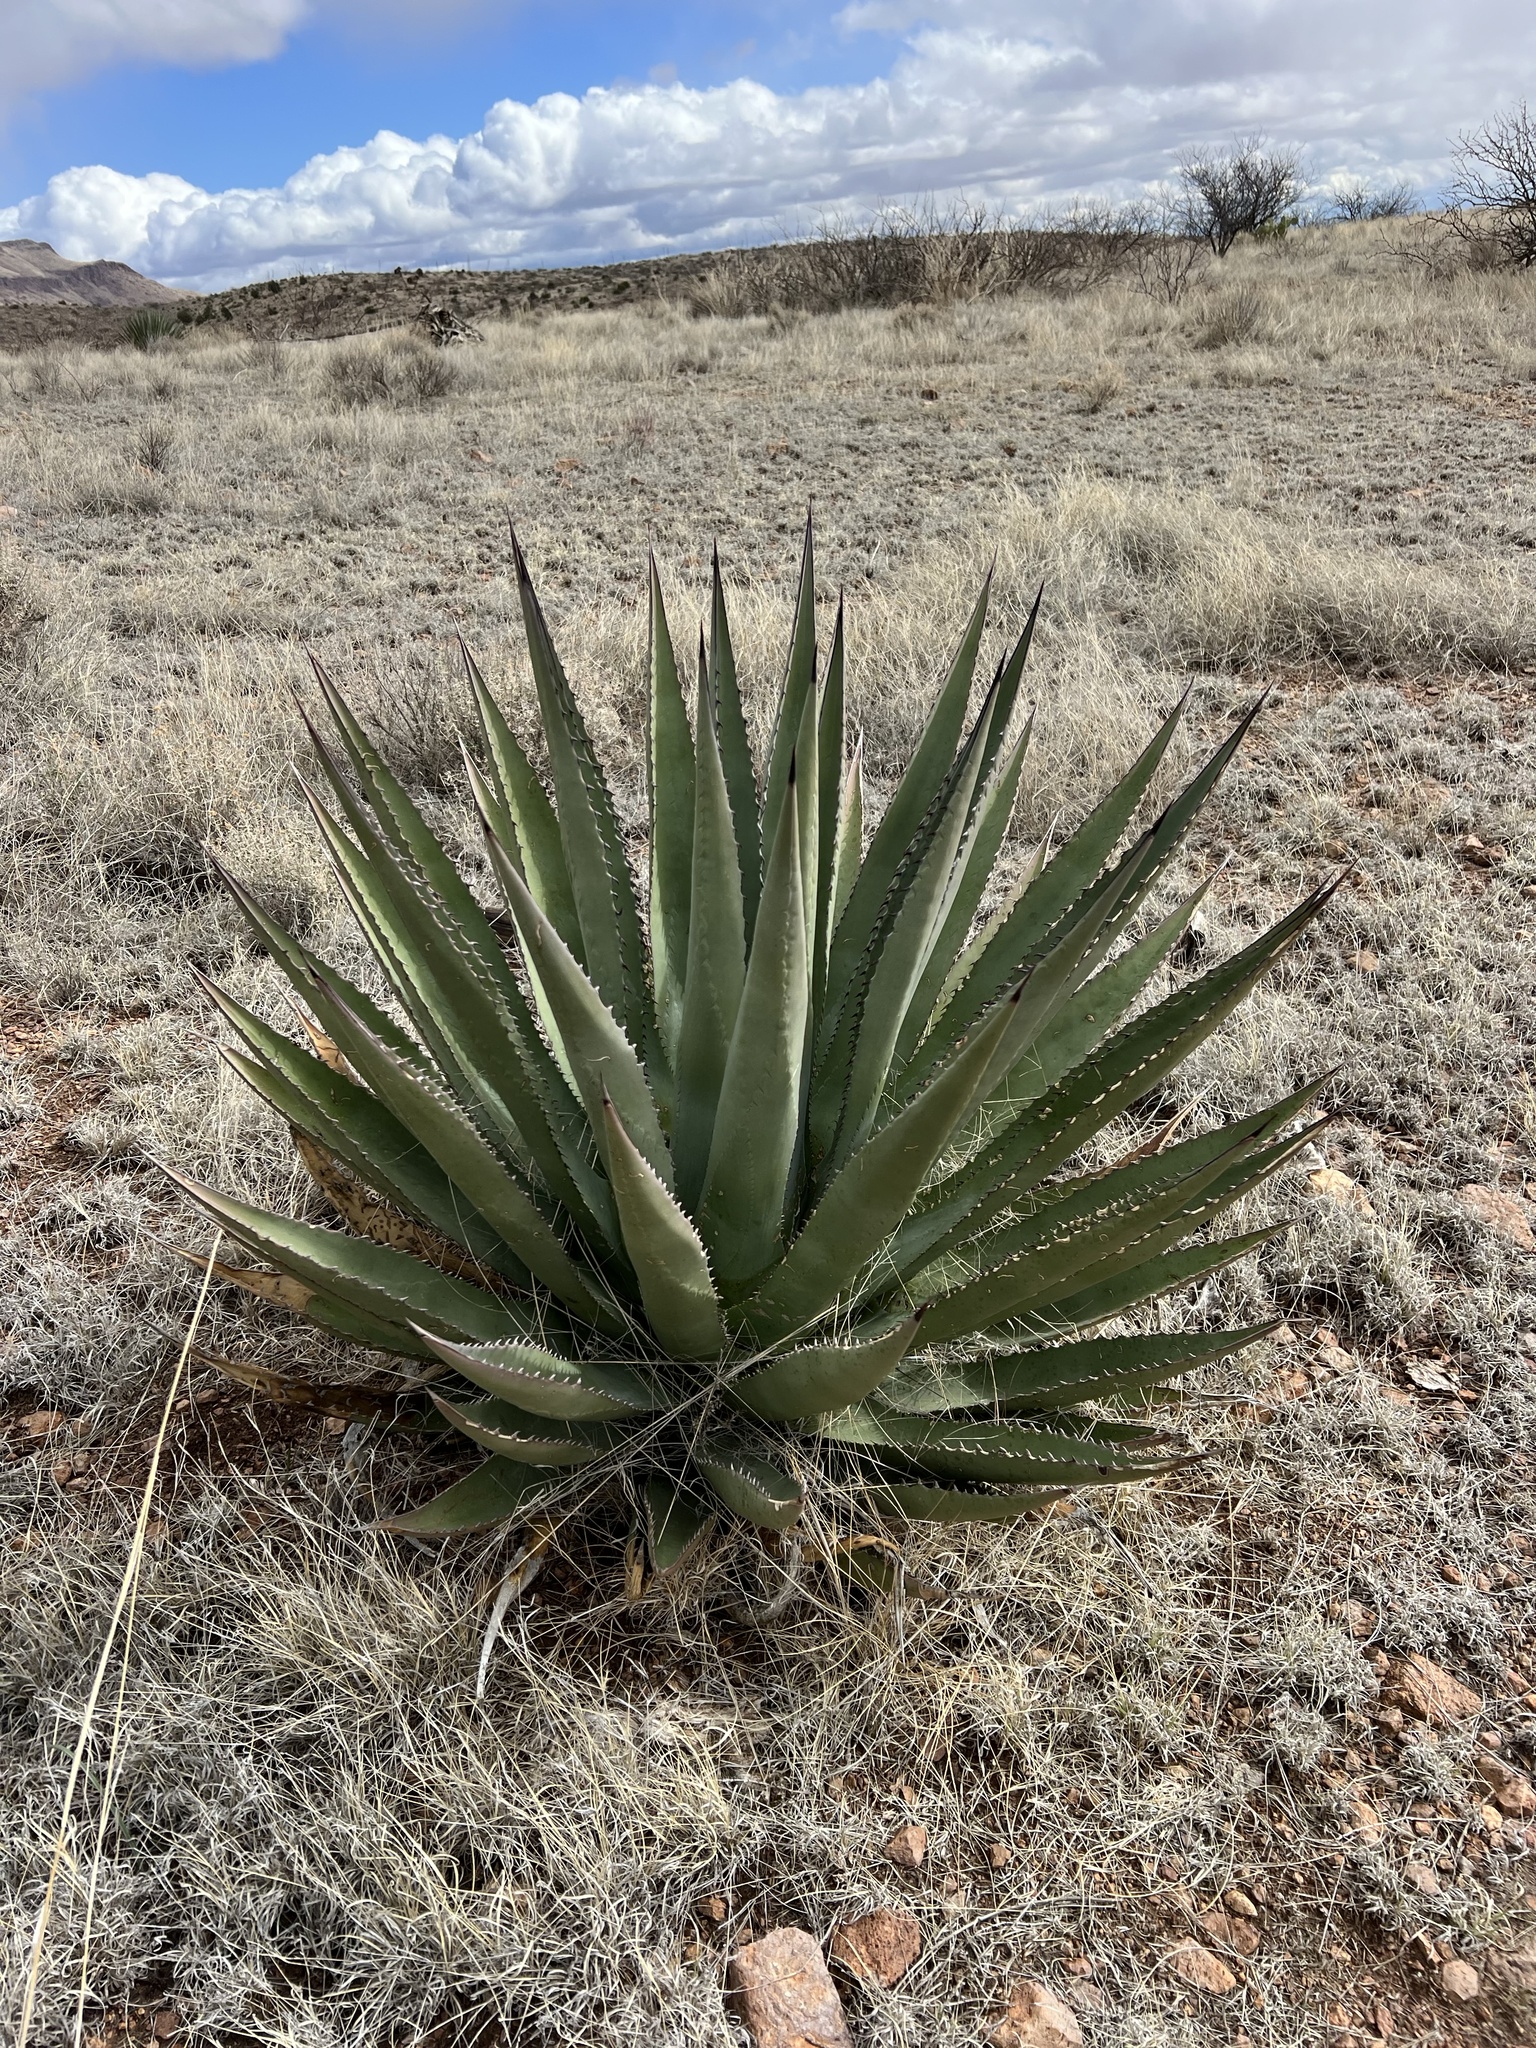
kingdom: Plantae
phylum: Tracheophyta
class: Liliopsida
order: Asparagales
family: Asparagaceae
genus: Agave
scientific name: Agave palmeri
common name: Palmer agave
